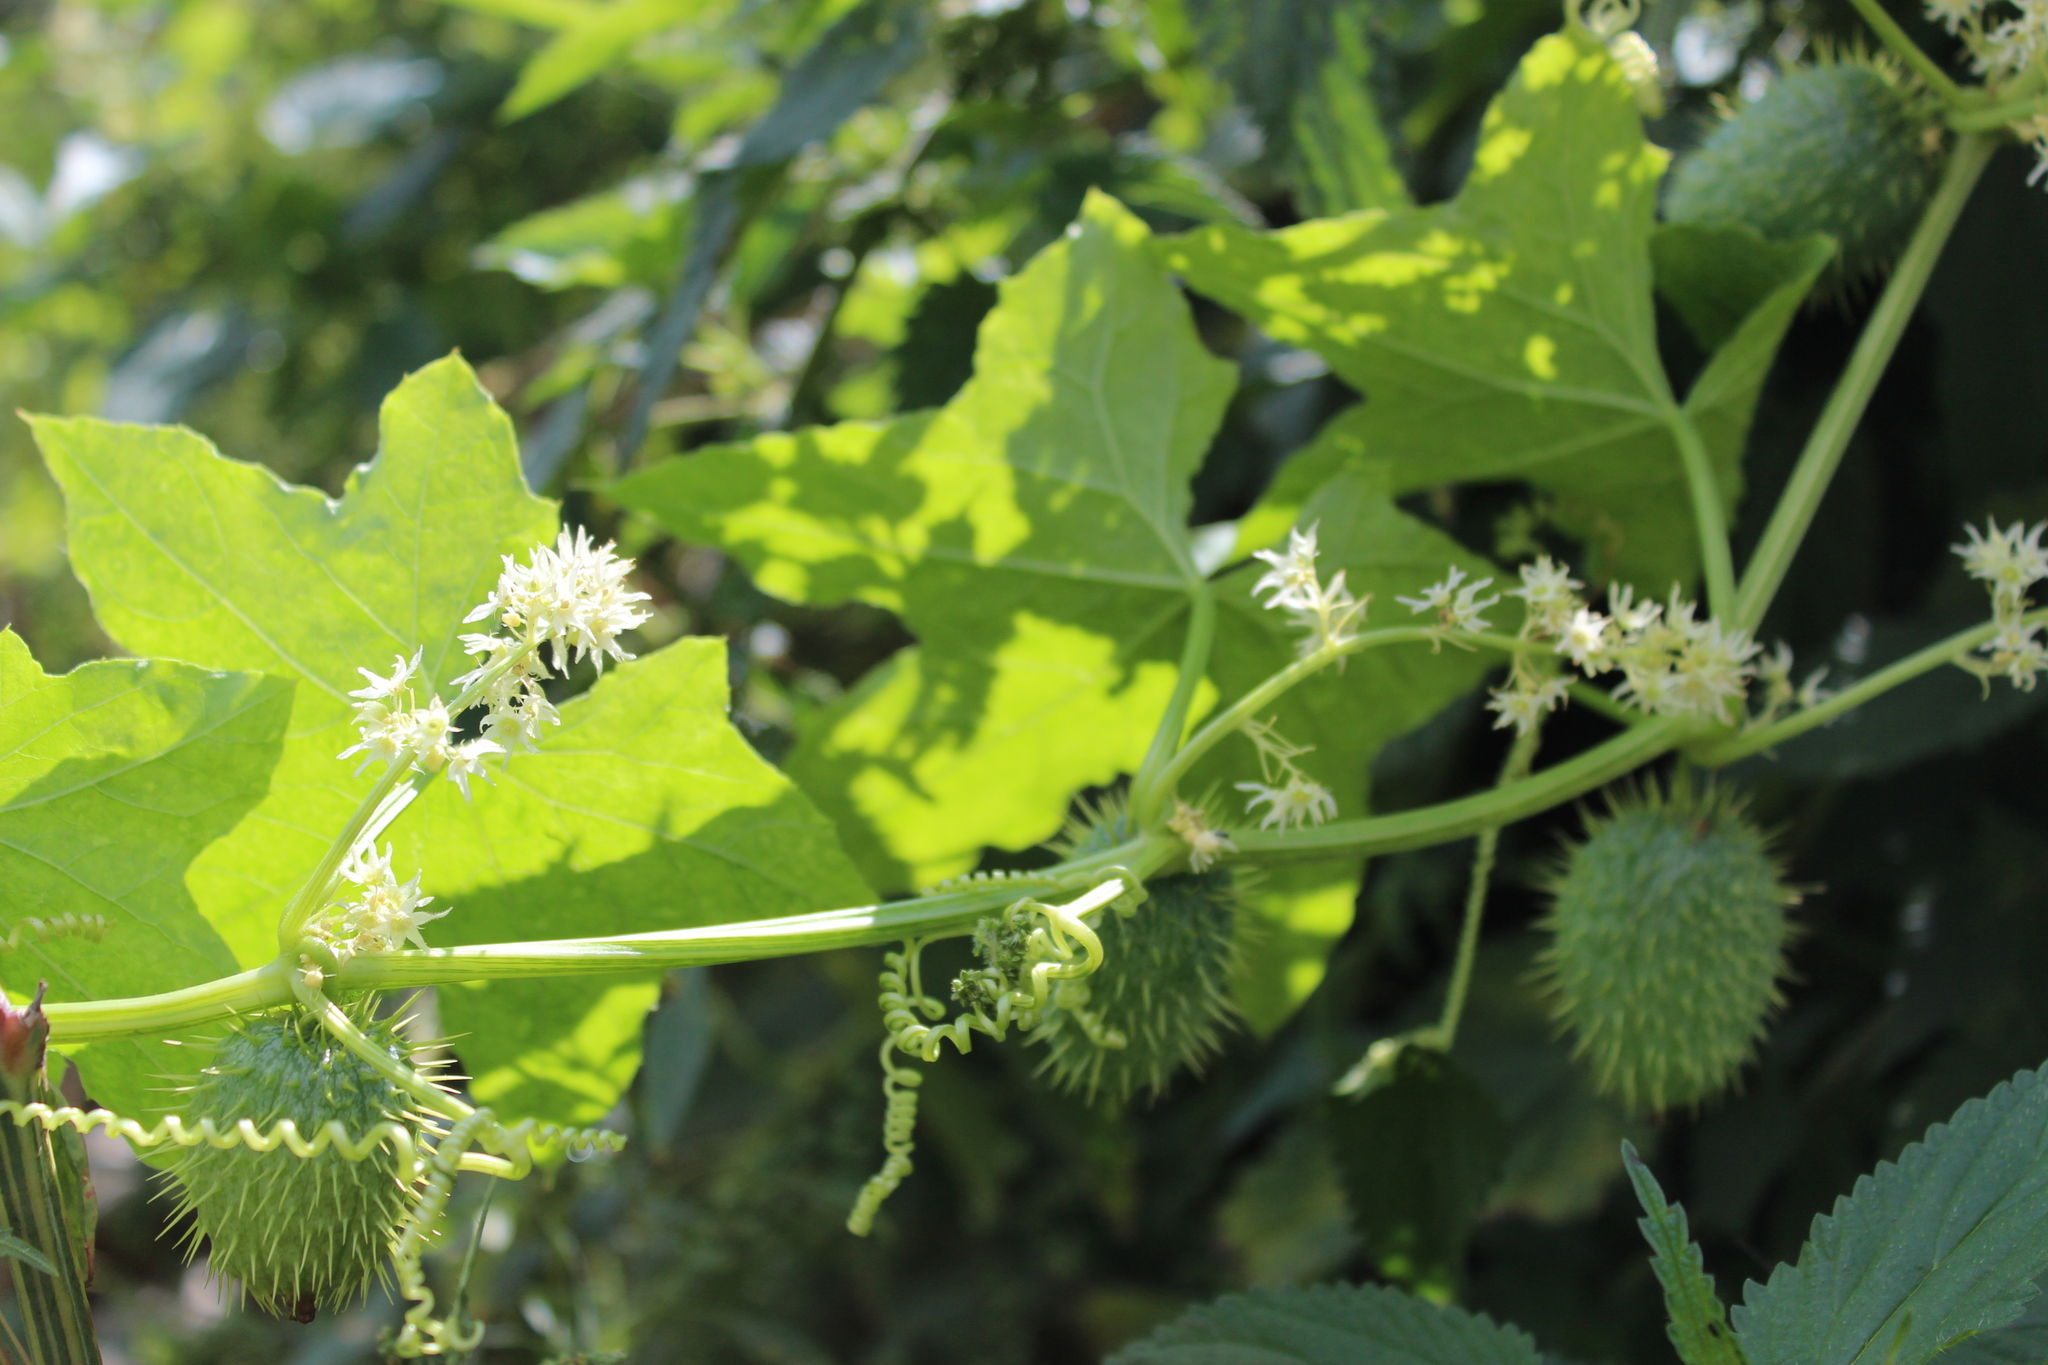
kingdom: Plantae
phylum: Tracheophyta
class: Magnoliopsida
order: Cucurbitales
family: Cucurbitaceae
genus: Echinocystis
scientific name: Echinocystis lobata
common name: Wild cucumber
